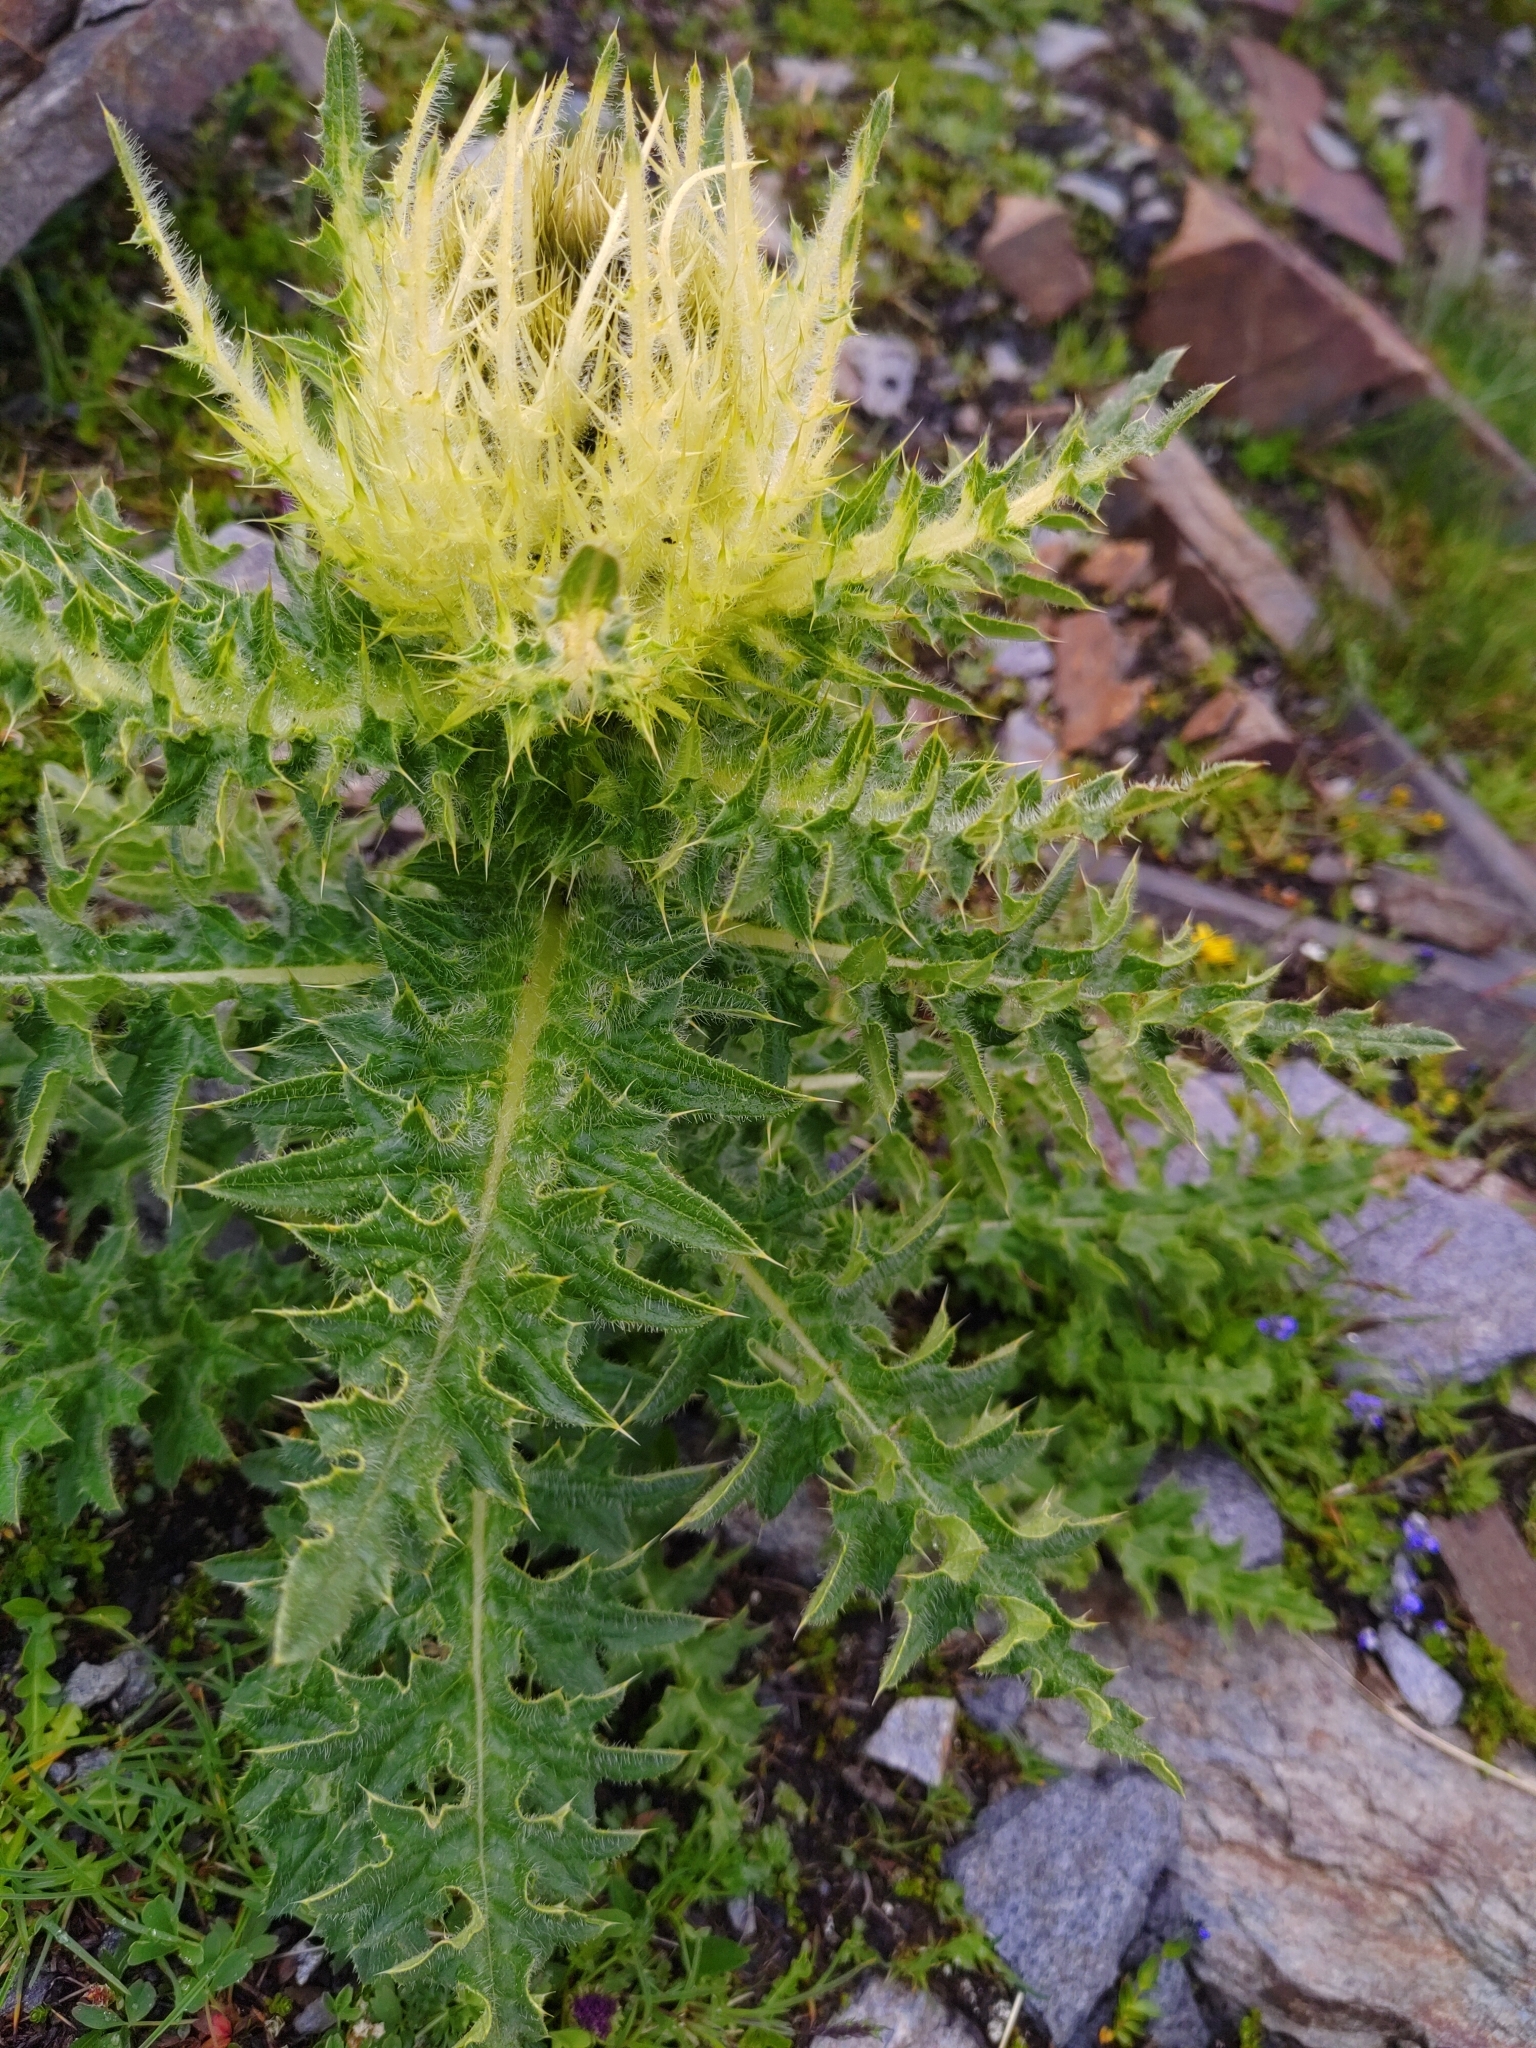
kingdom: Plantae
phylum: Tracheophyta
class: Magnoliopsida
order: Asterales
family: Asteraceae
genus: Cirsium
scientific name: Cirsium spinosissimum
